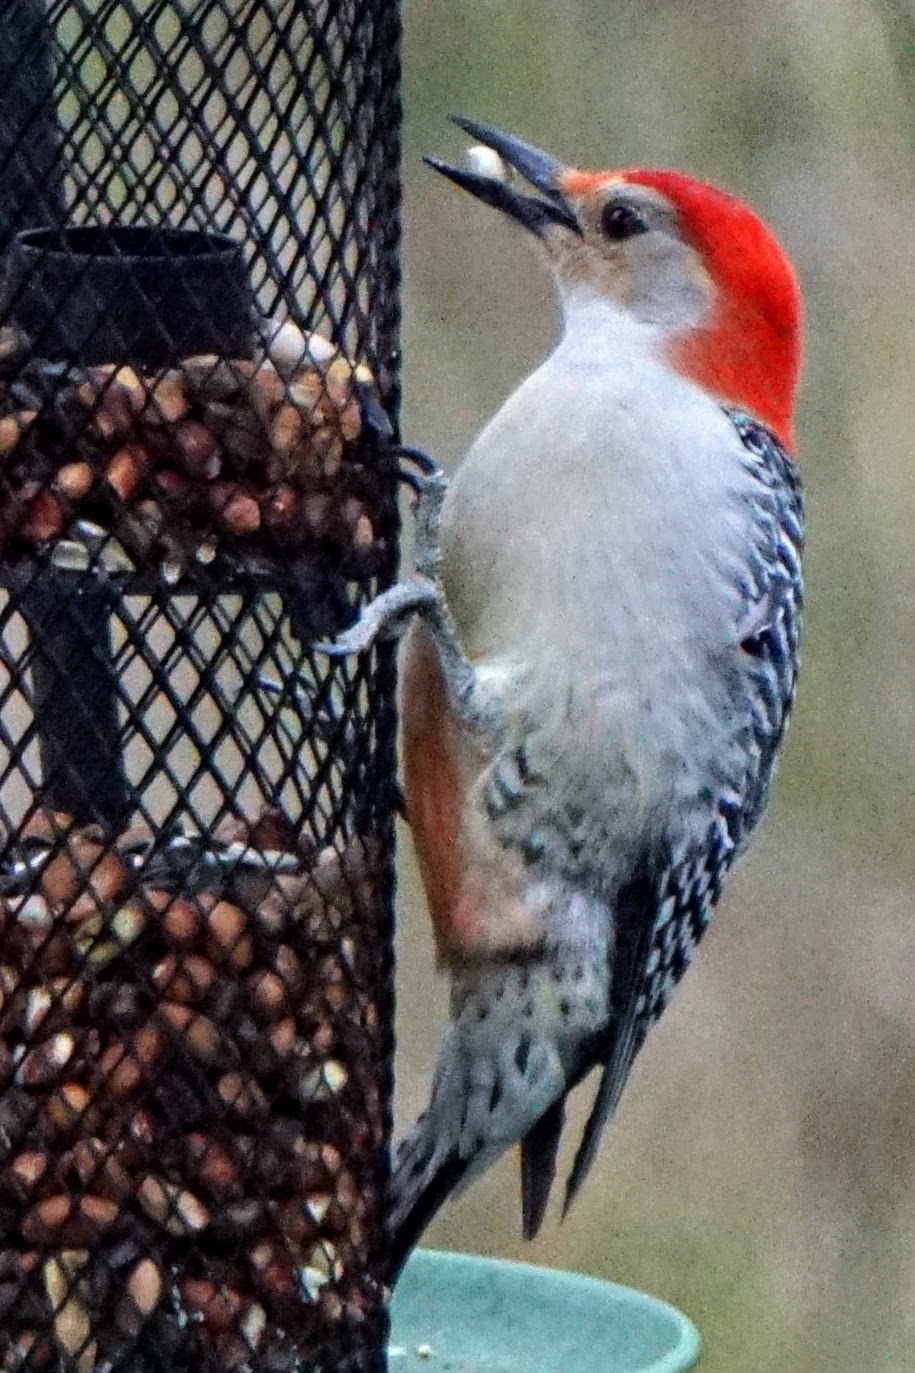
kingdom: Animalia
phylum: Chordata
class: Aves
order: Piciformes
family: Picidae
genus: Melanerpes
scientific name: Melanerpes carolinus
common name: Red-bellied woodpecker
